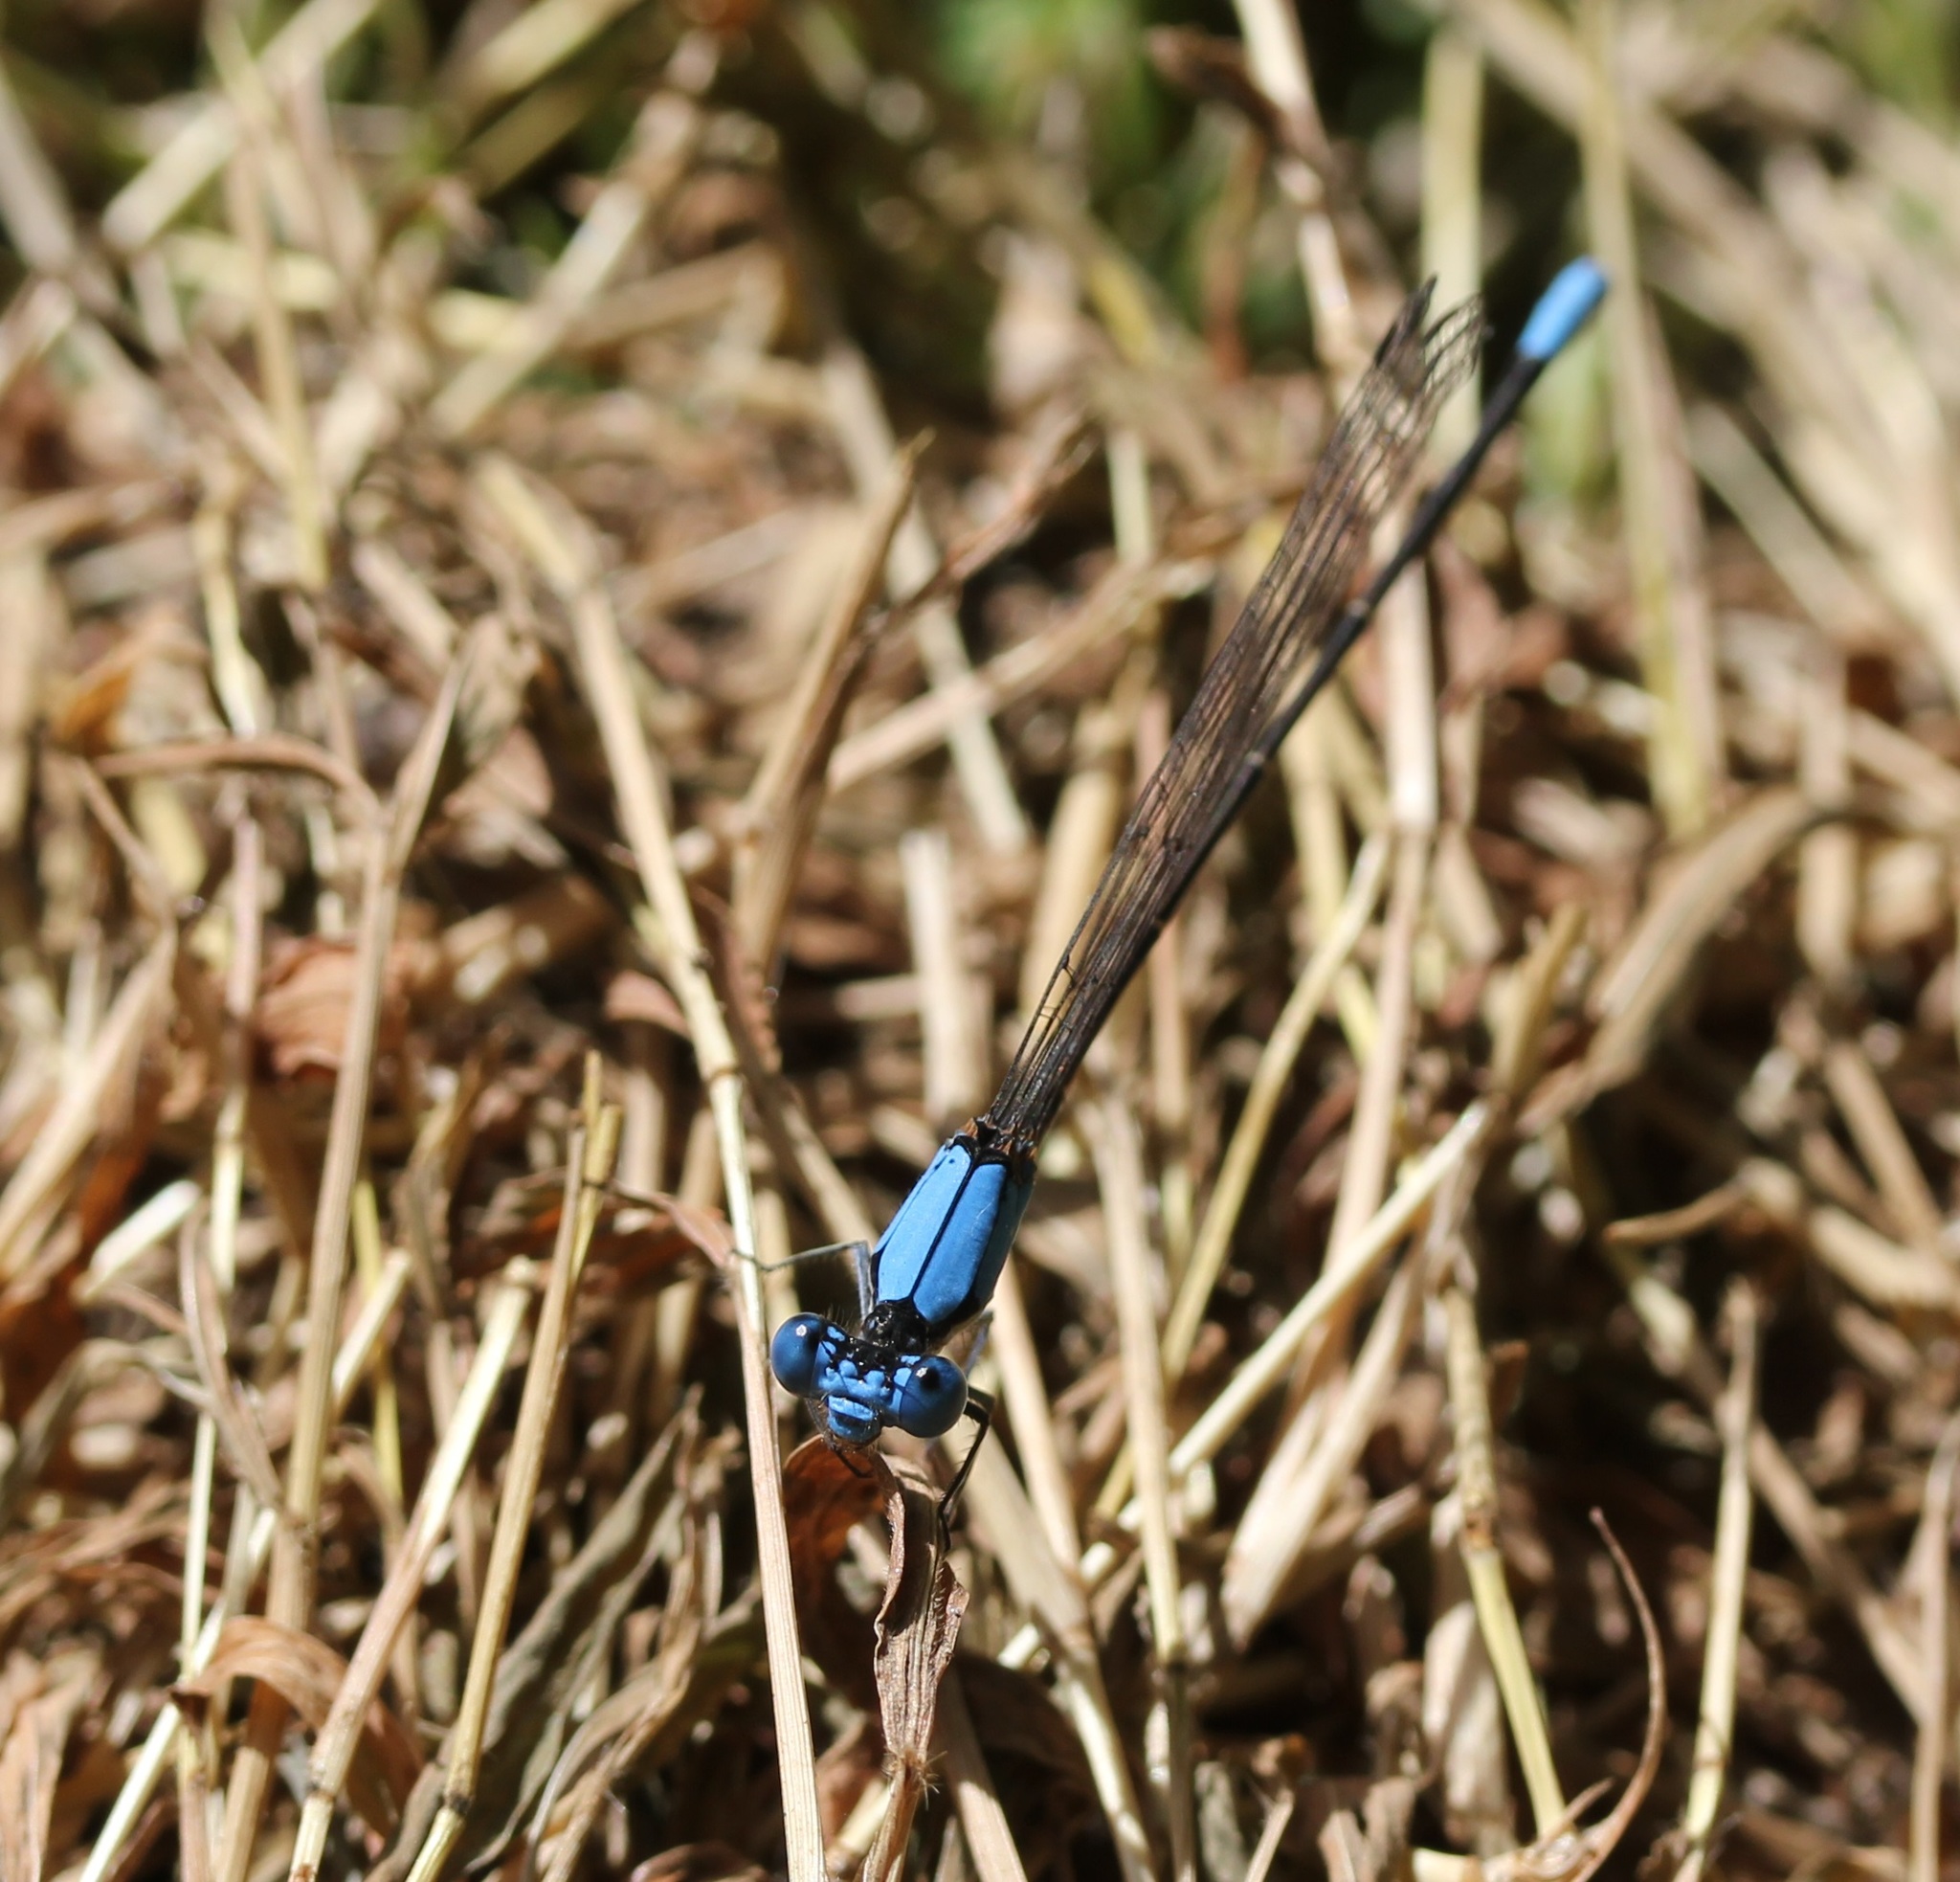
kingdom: Animalia
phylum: Arthropoda
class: Insecta
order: Odonata
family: Coenagrionidae
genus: Argia
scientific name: Argia apicalis
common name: Blue-fronted dancer
